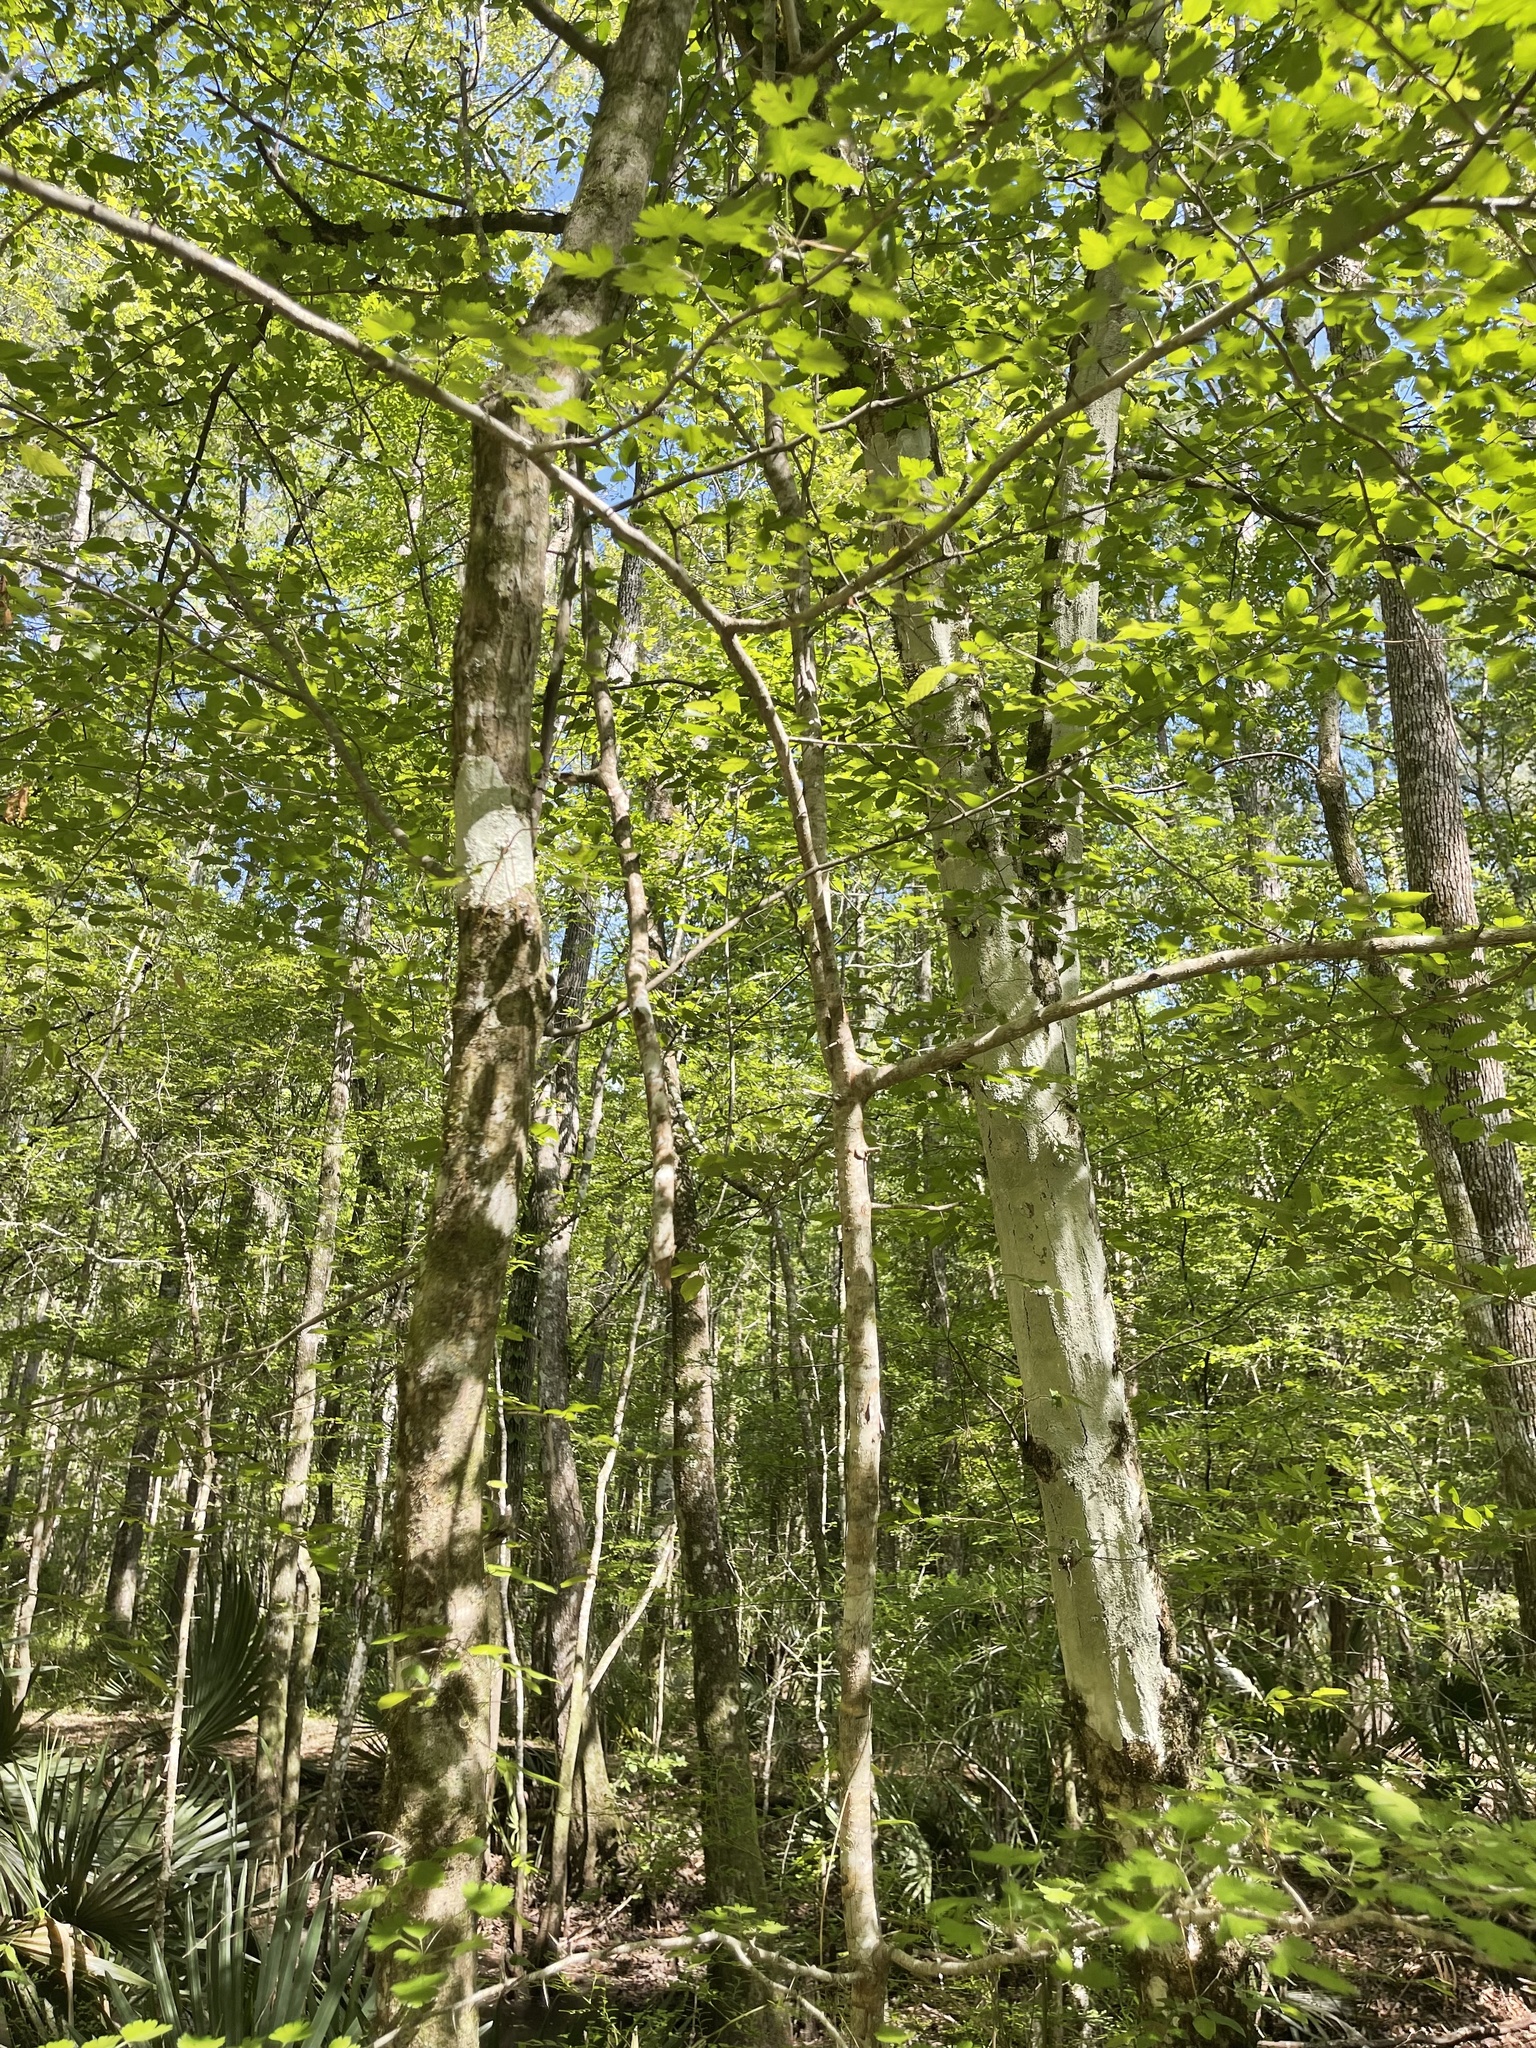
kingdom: Plantae
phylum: Tracheophyta
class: Magnoliopsida
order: Rosales
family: Rosaceae
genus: Crataegus
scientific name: Crataegus marshallii
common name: Parsley-hawthorn
